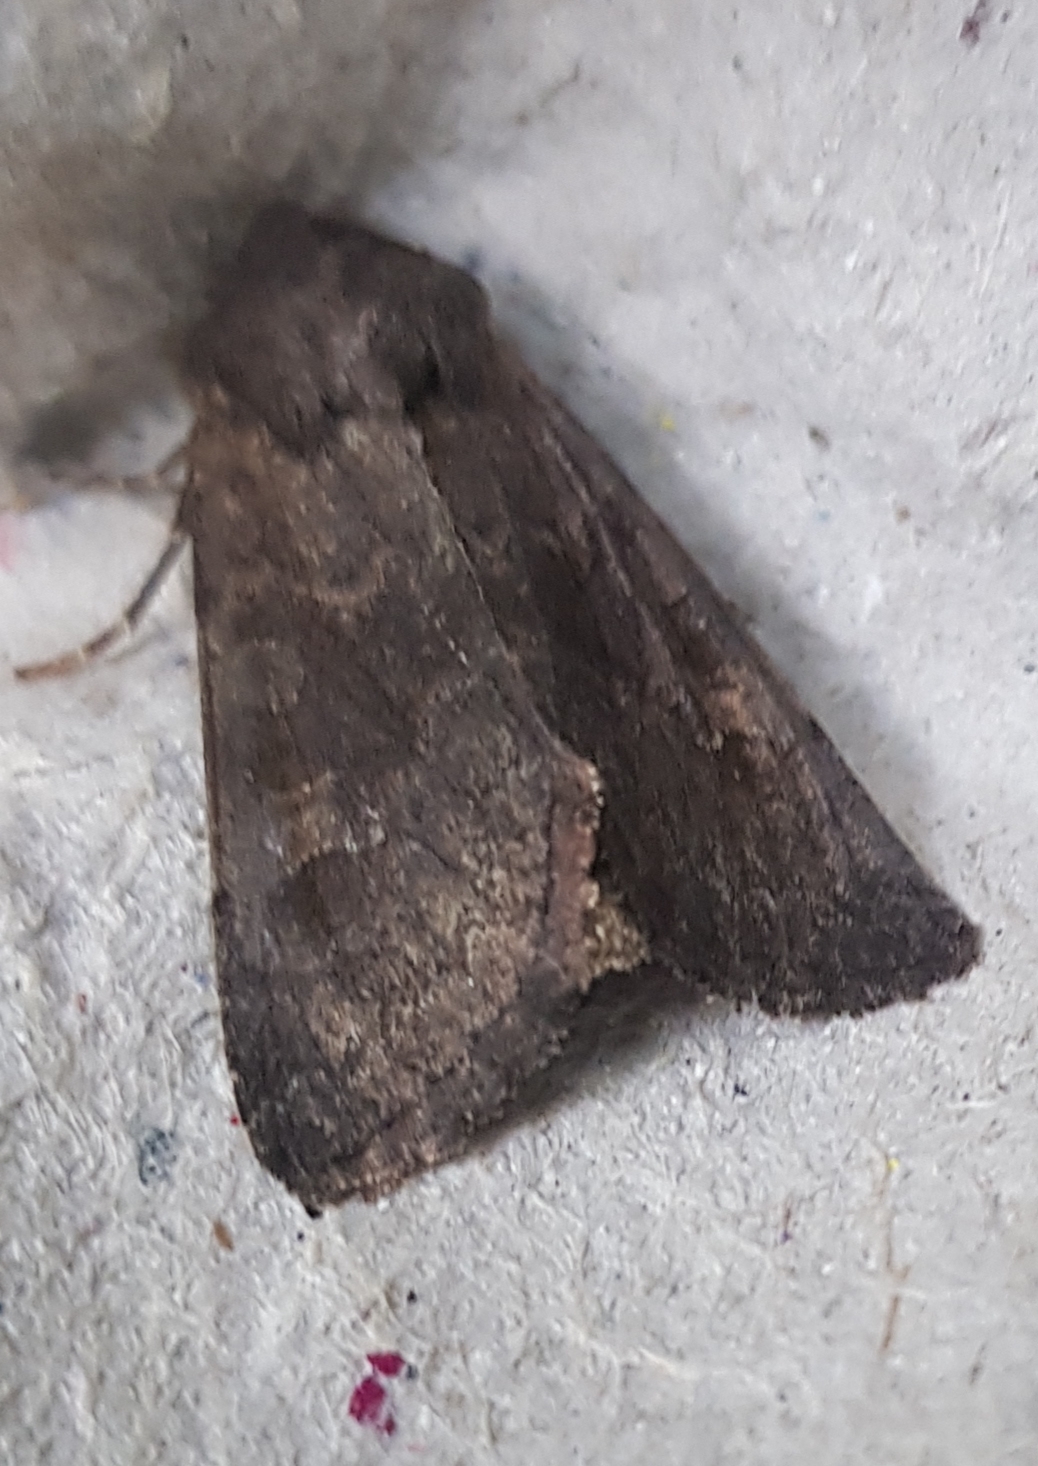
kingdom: Animalia
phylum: Arthropoda
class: Insecta
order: Lepidoptera
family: Noctuidae
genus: Aporophyla
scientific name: Aporophyla lueneburgensis
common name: Northern deep-brown dart
